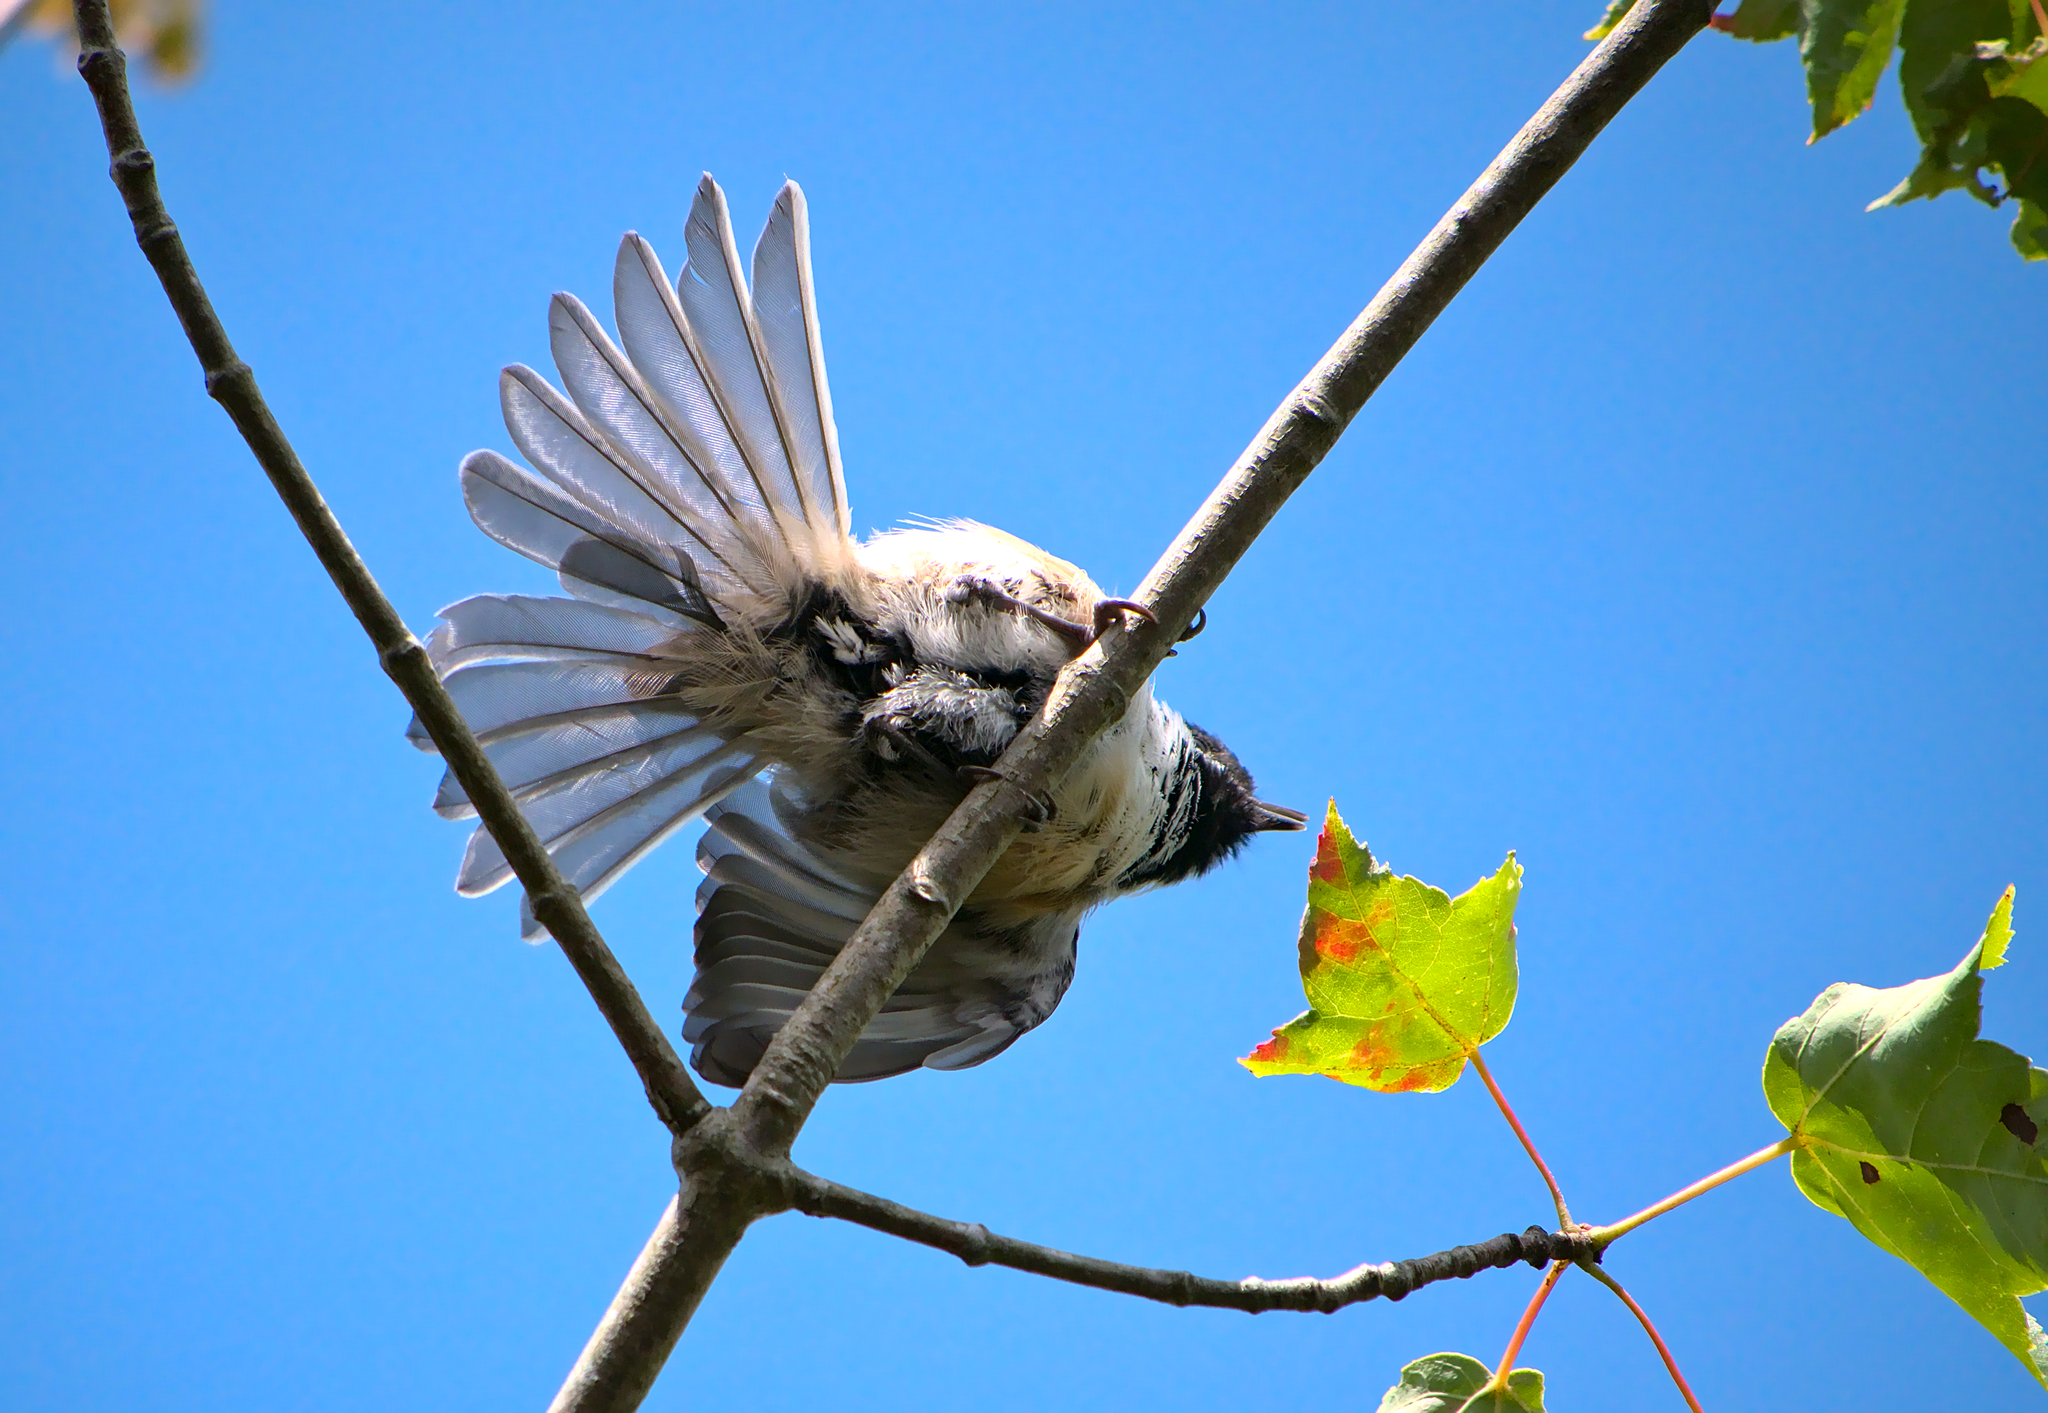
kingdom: Animalia
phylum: Chordata
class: Aves
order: Passeriformes
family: Paridae
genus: Poecile
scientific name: Poecile atricapillus
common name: Black-capped chickadee
